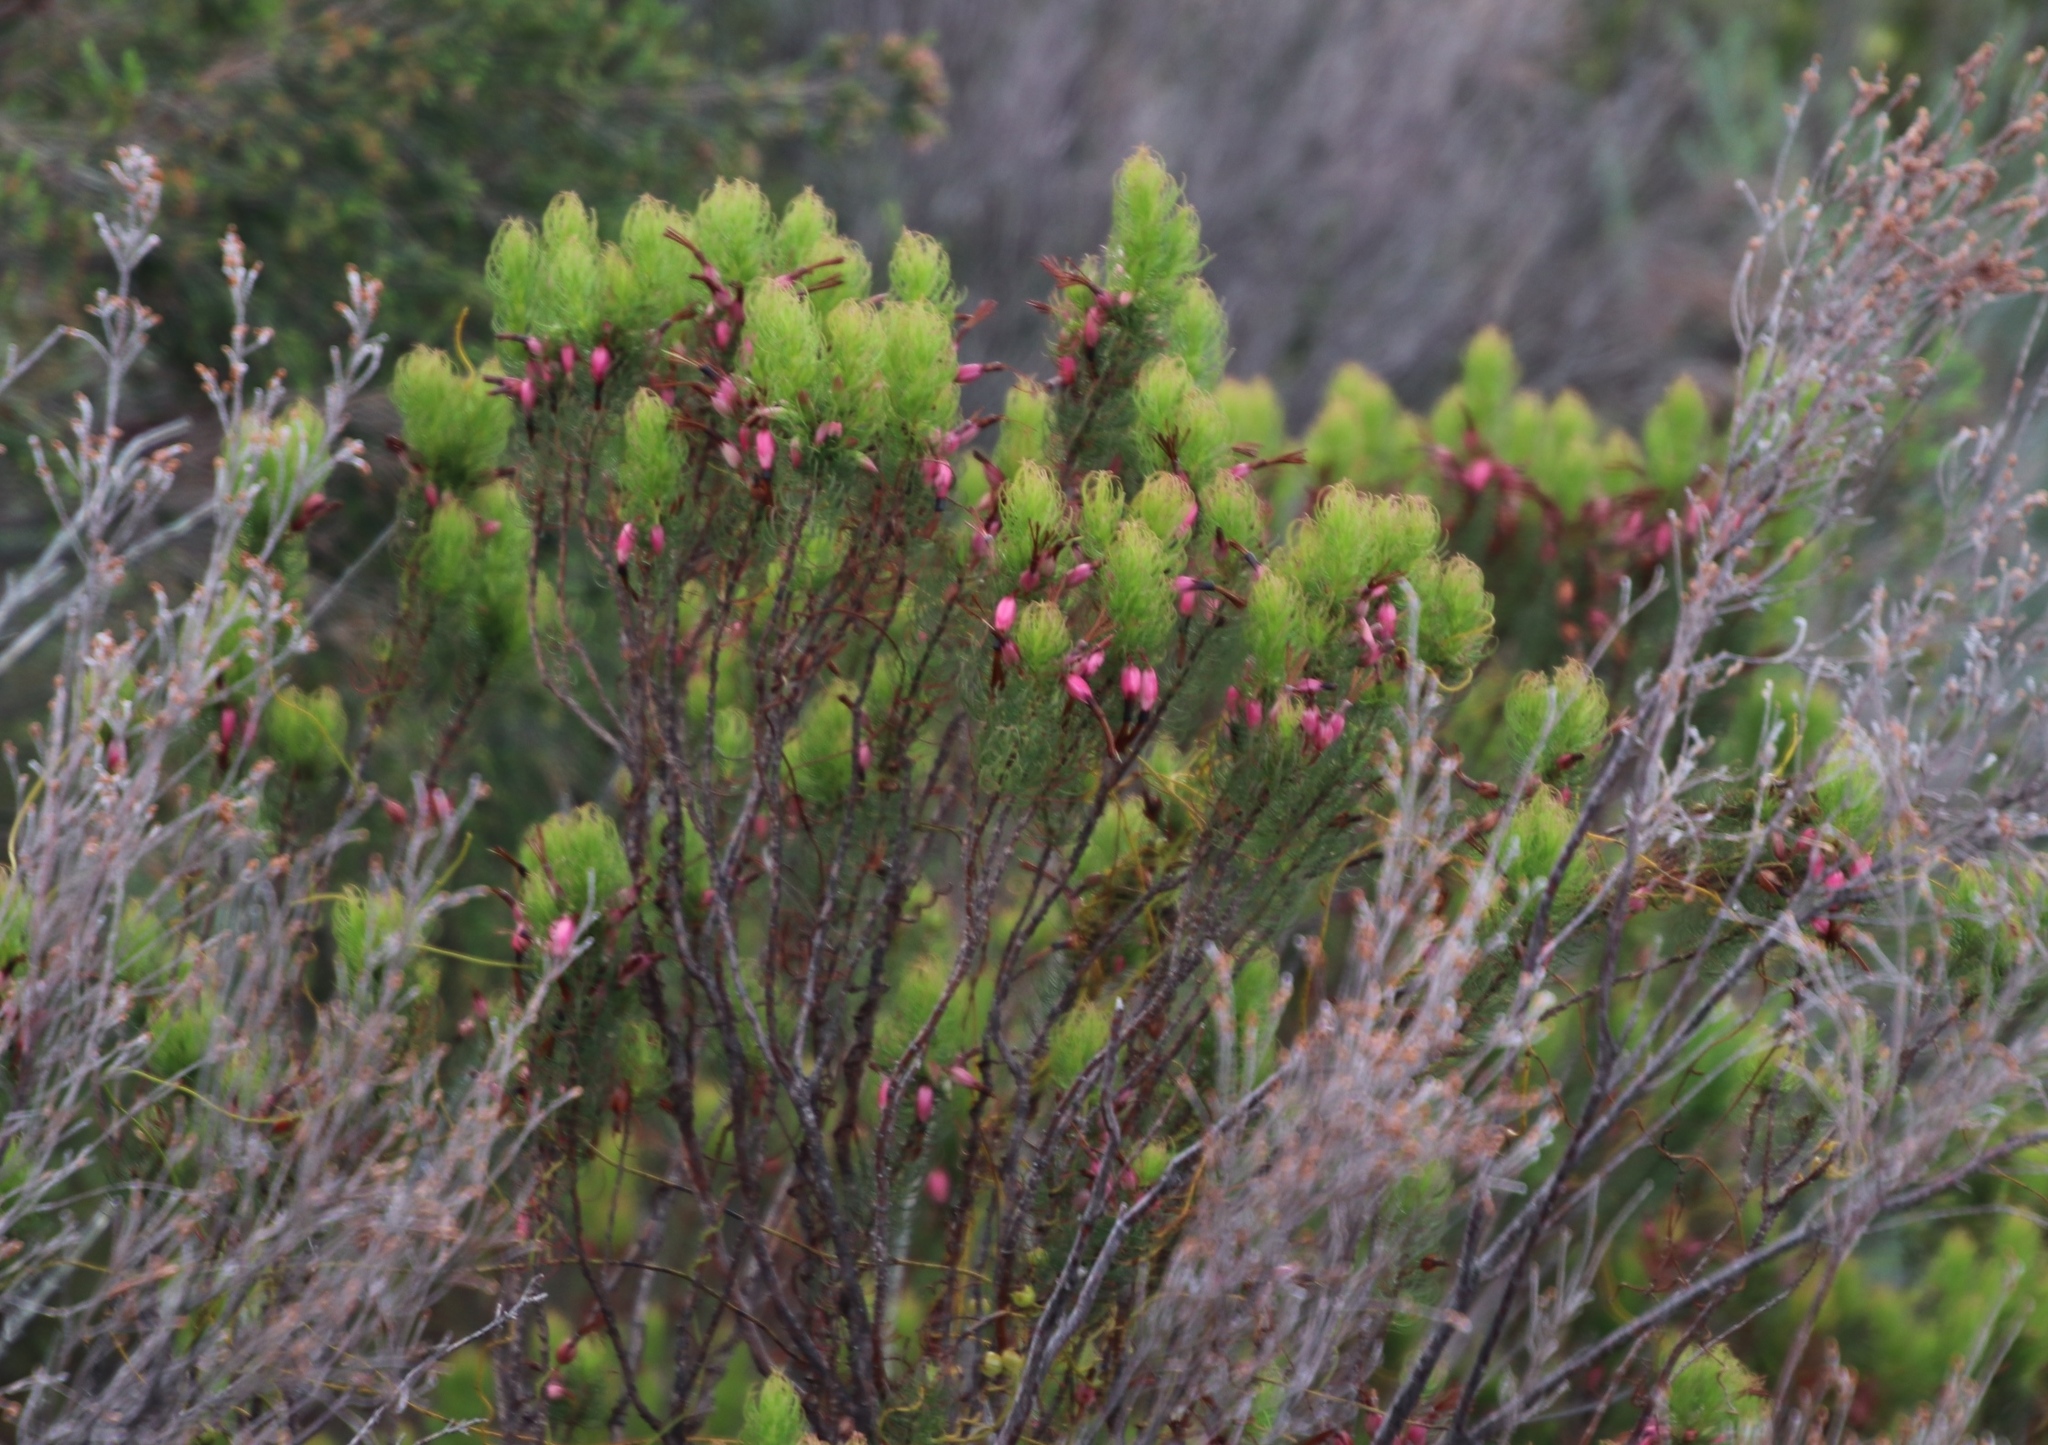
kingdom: Plantae
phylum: Tracheophyta
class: Magnoliopsida
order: Ericales
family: Ericaceae
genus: Erica
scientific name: Erica plukenetii
